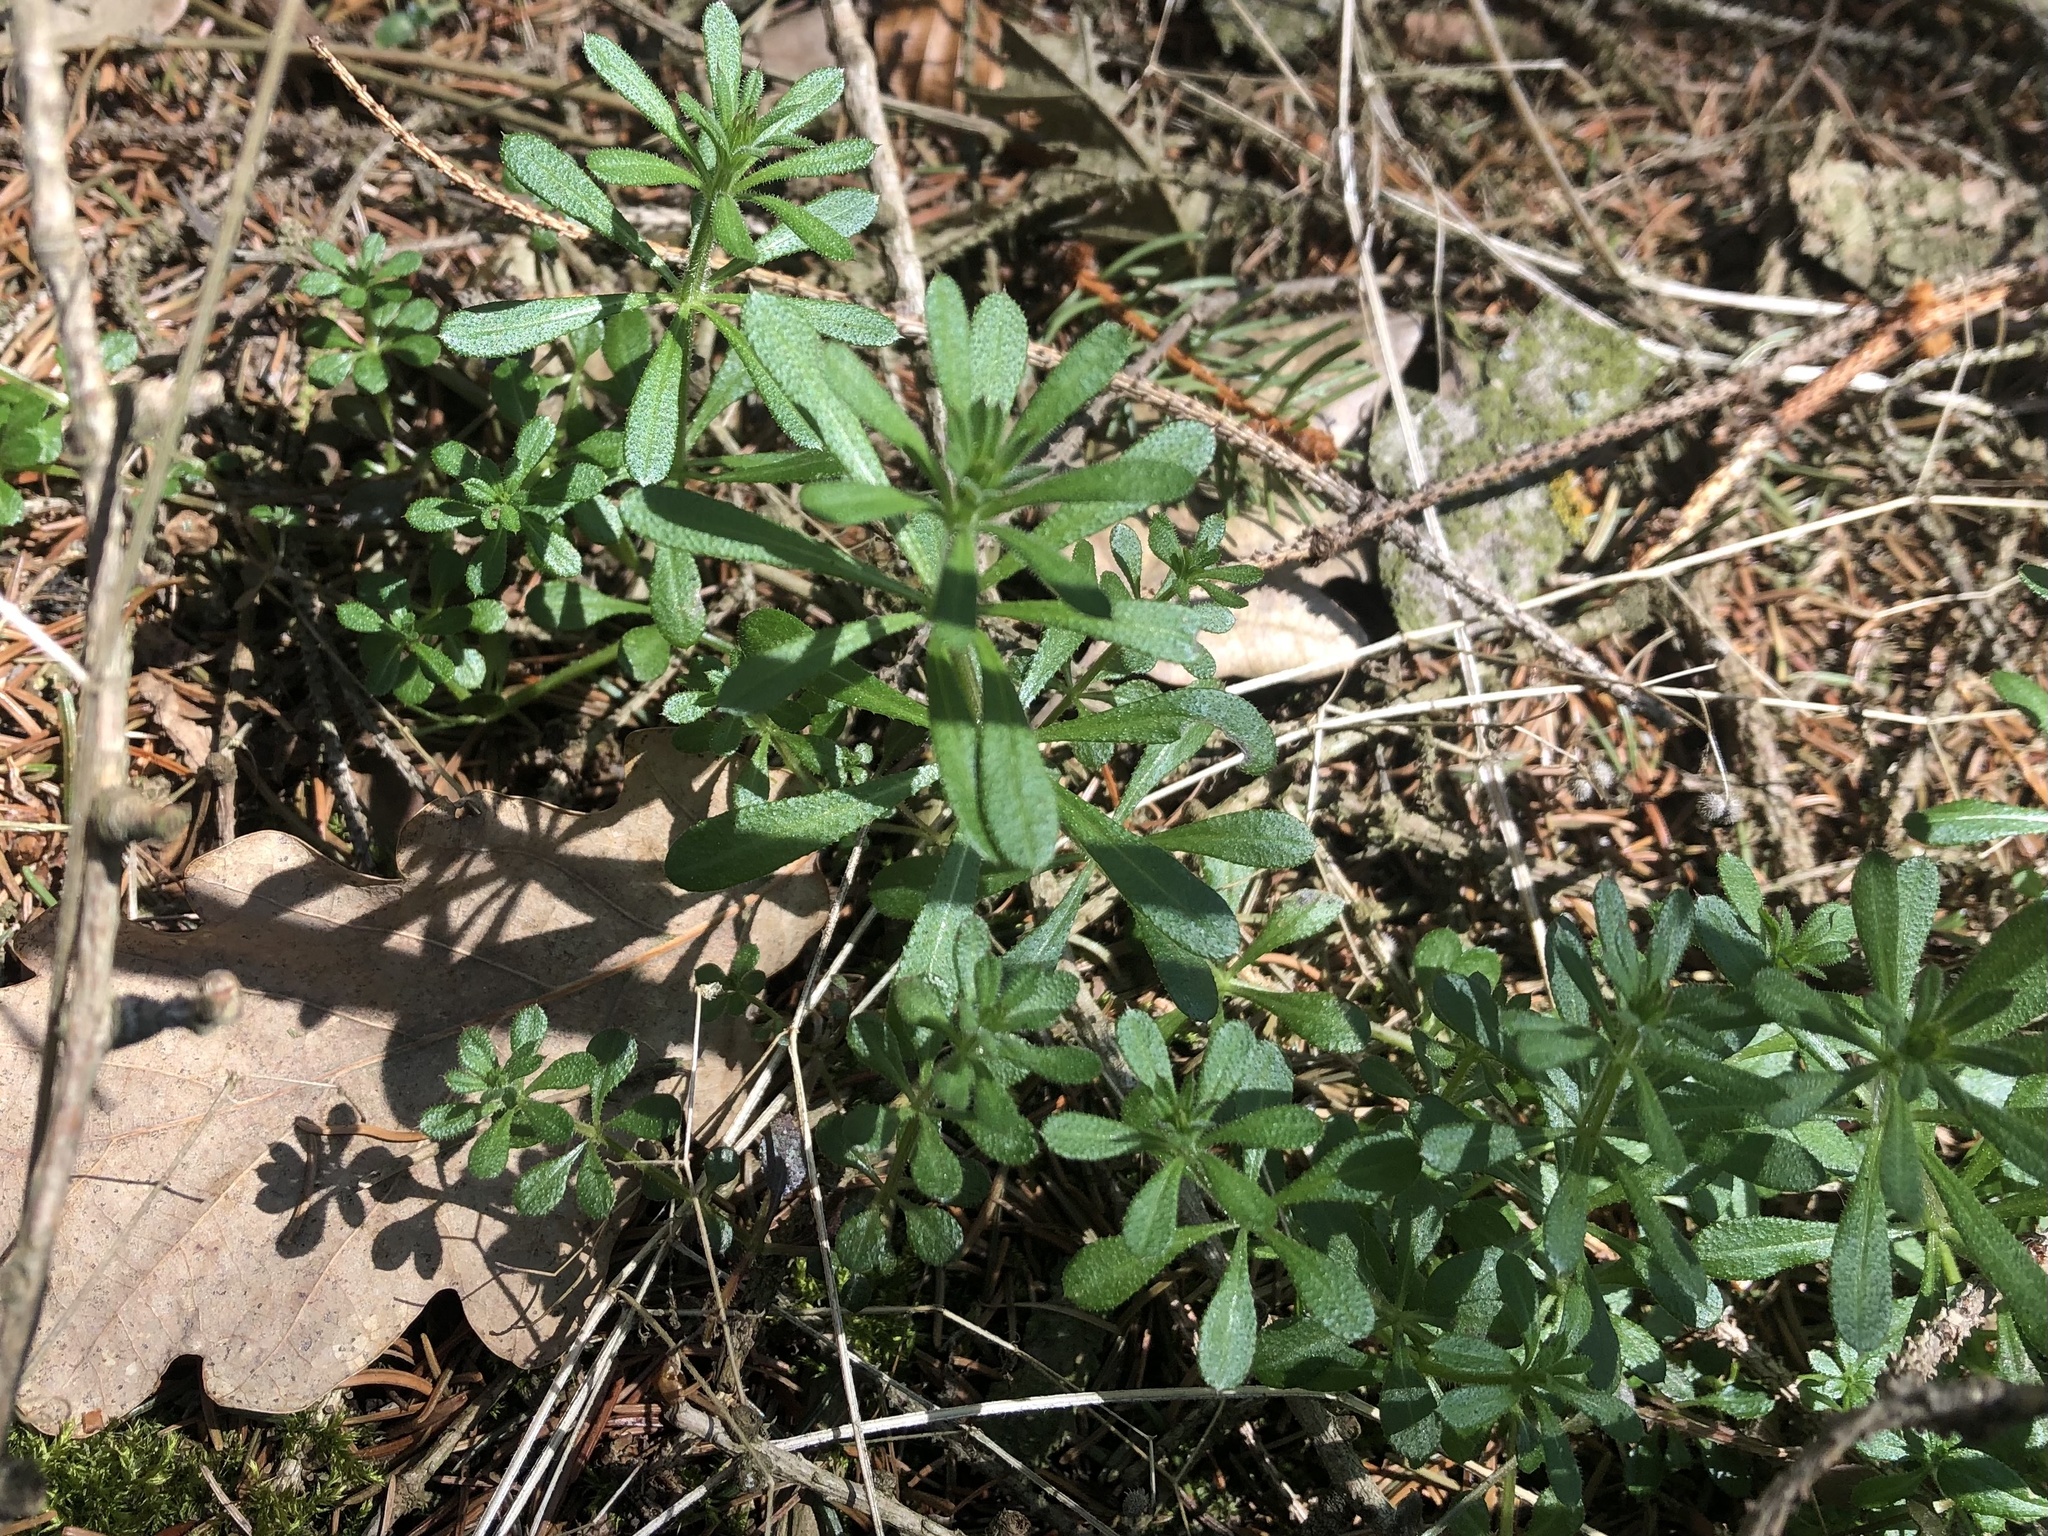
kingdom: Plantae
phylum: Tracheophyta
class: Magnoliopsida
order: Gentianales
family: Rubiaceae
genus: Galium
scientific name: Galium aparine
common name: Cleavers
